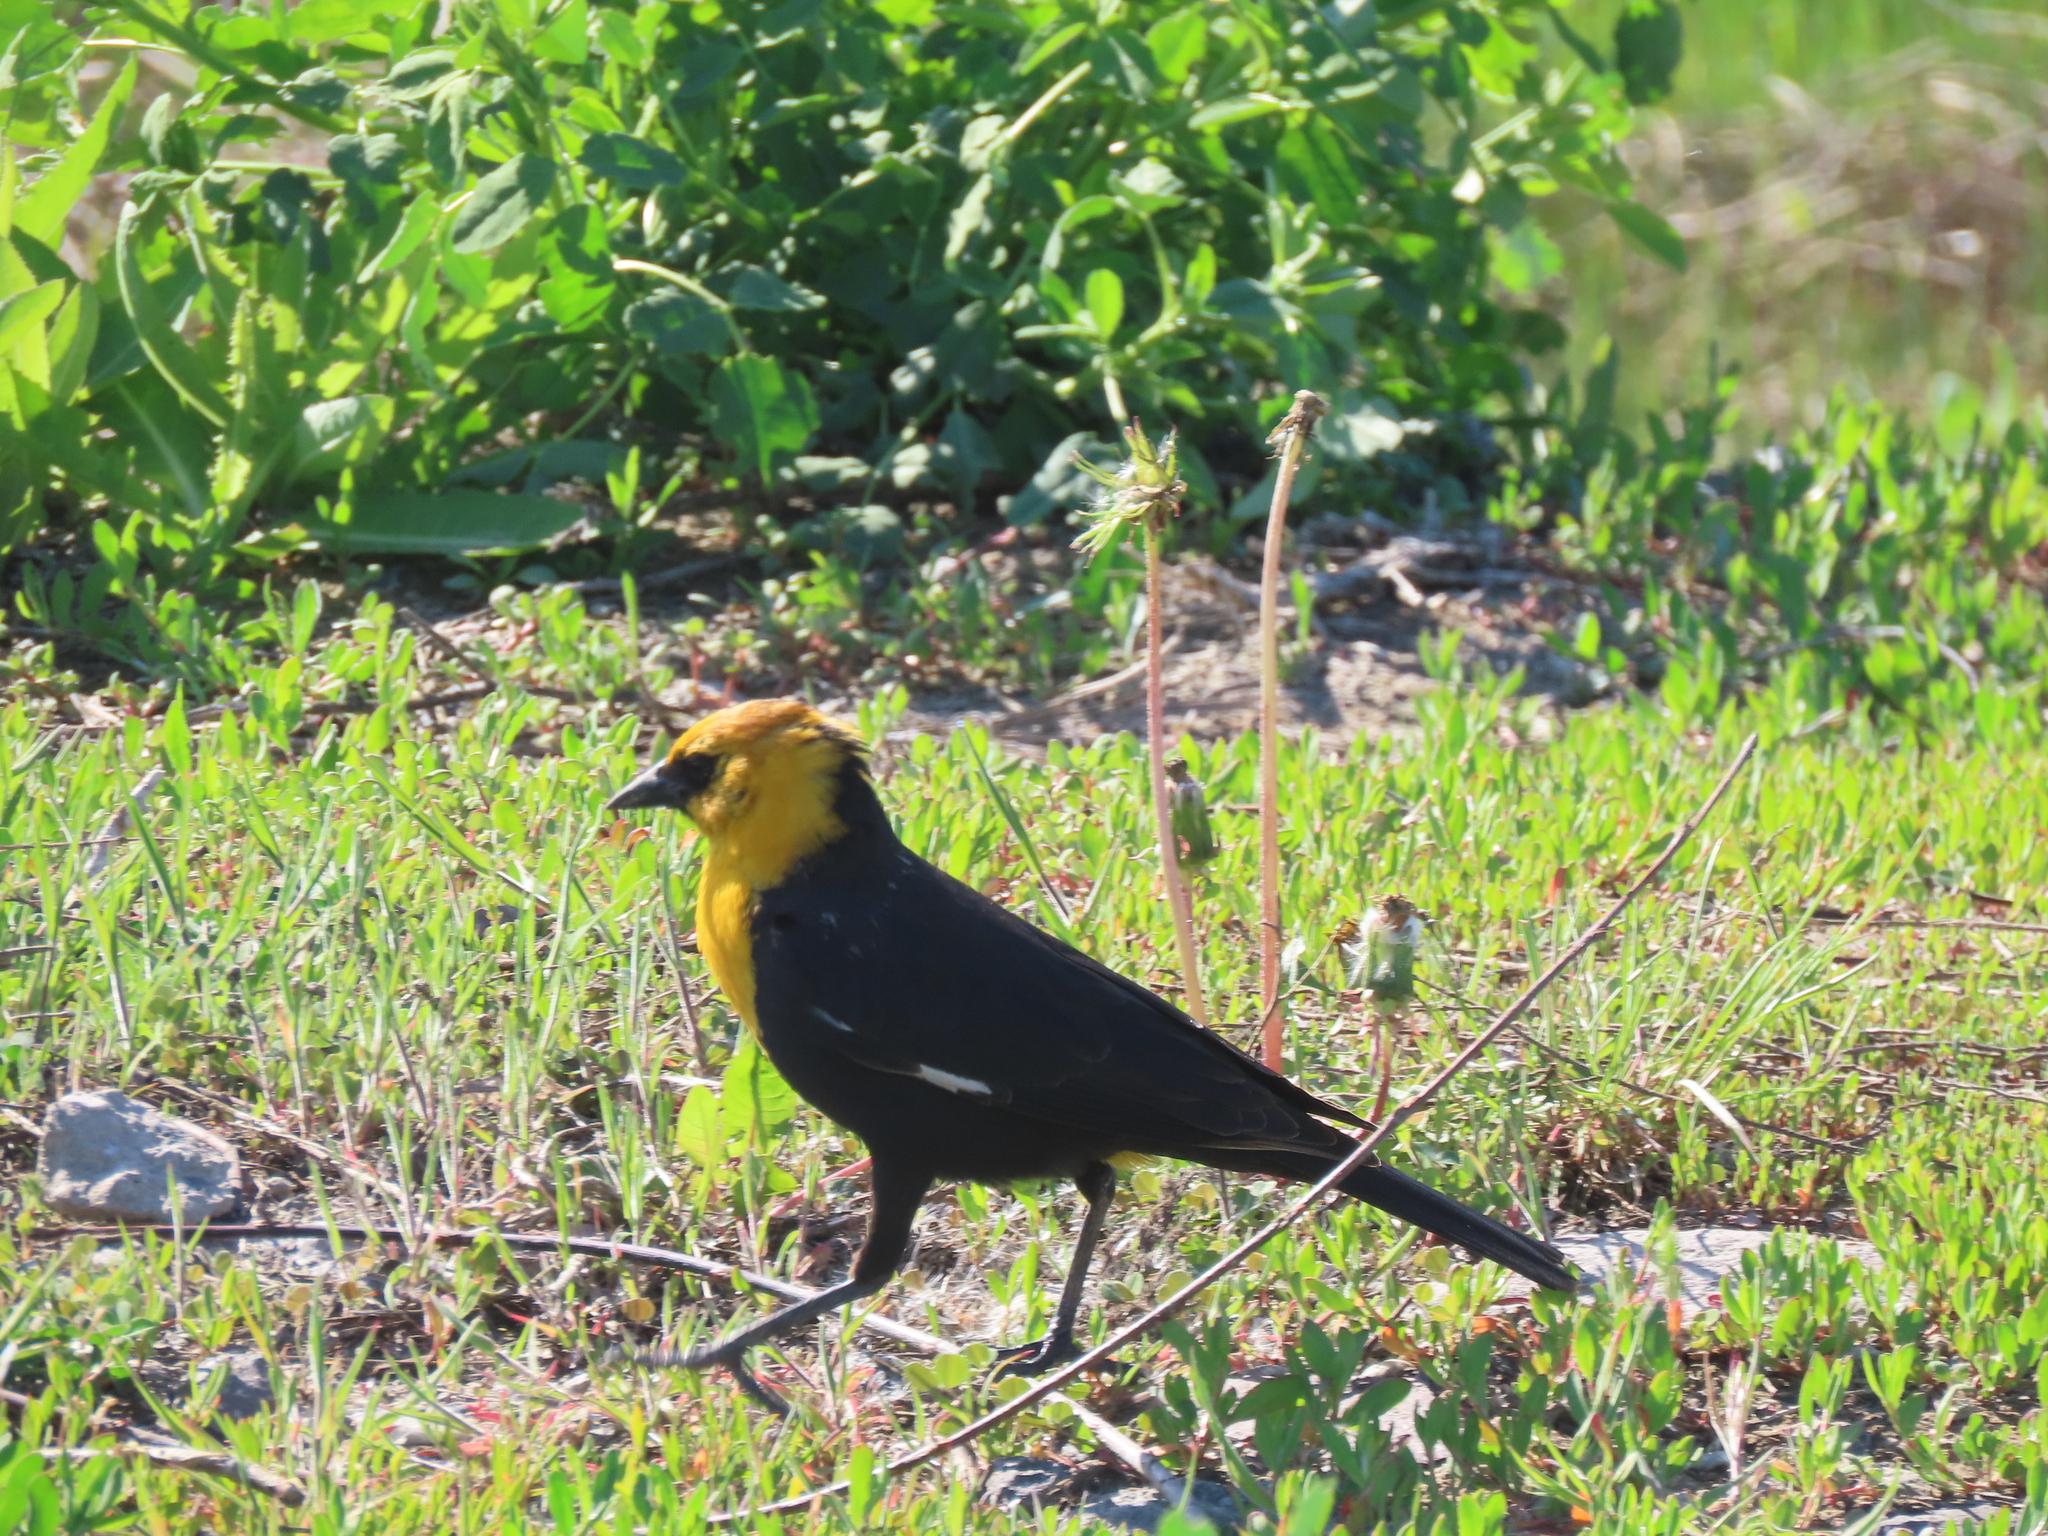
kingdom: Animalia
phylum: Chordata
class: Aves
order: Passeriformes
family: Icteridae
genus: Xanthocephalus
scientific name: Xanthocephalus xanthocephalus
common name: Yellow-headed blackbird
